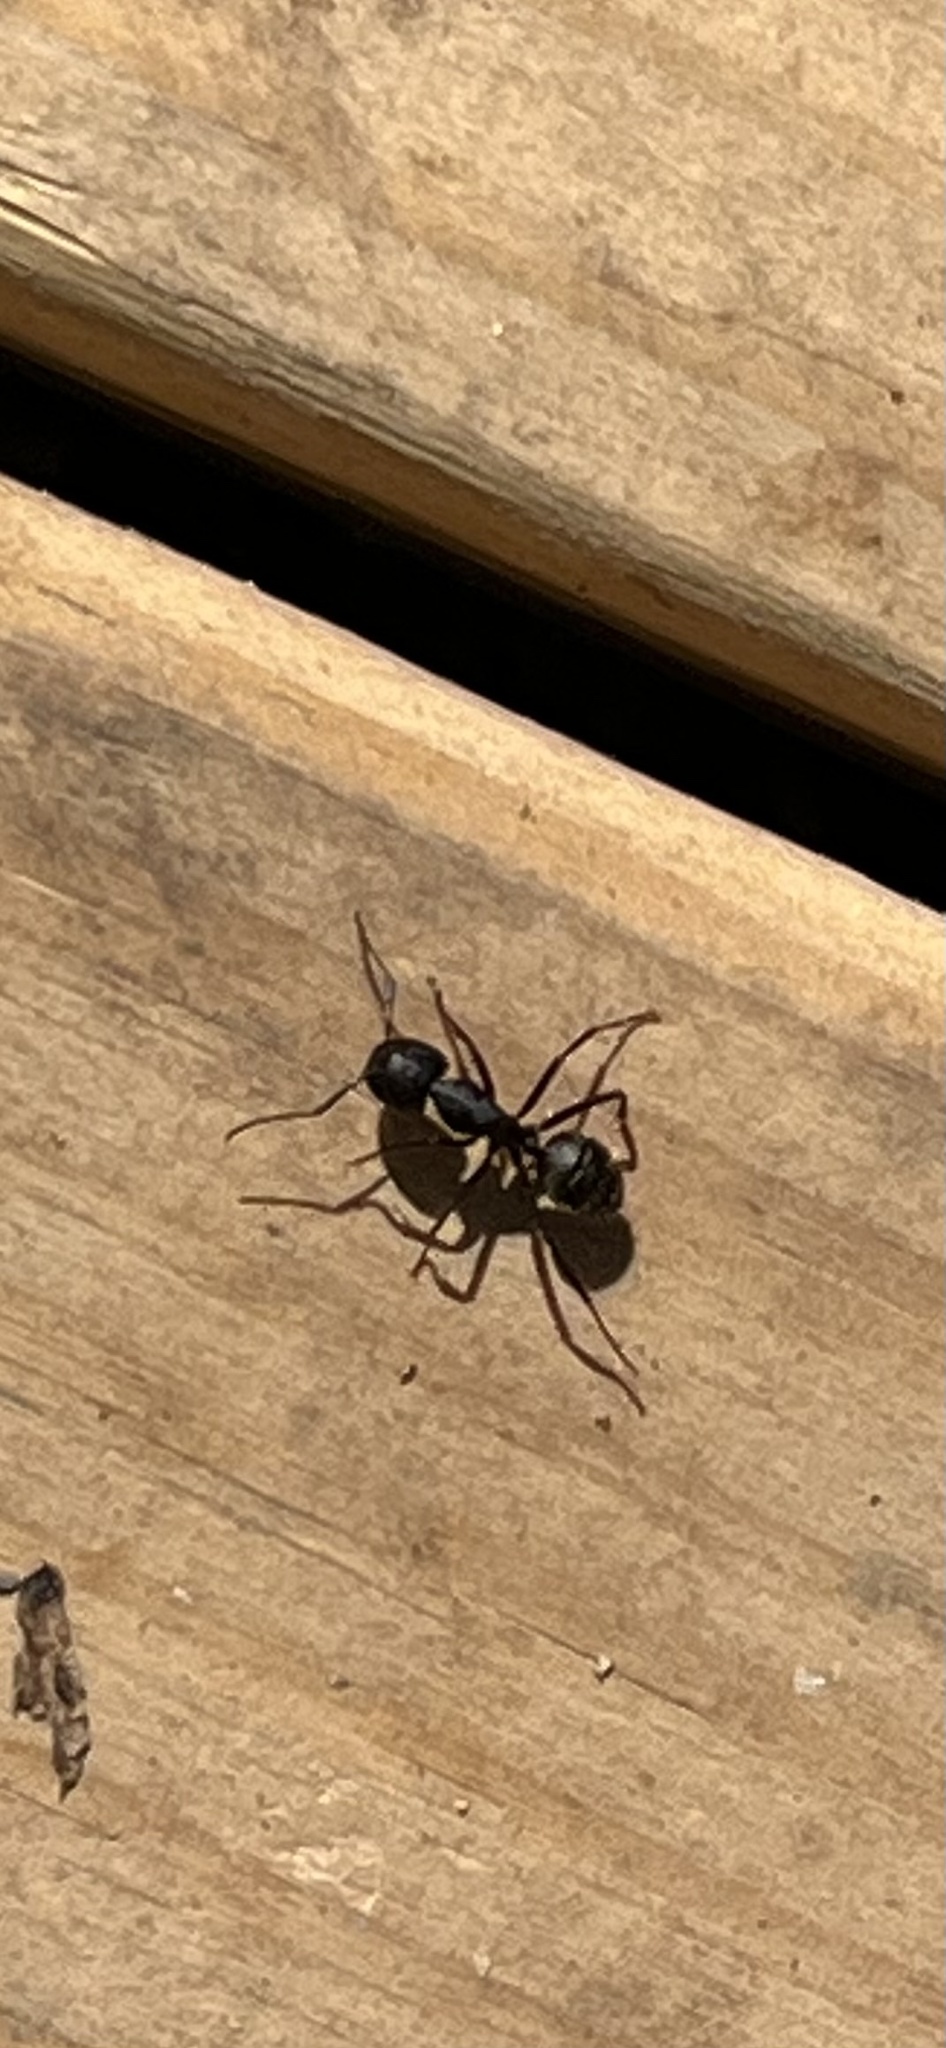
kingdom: Animalia
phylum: Arthropoda
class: Insecta
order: Hymenoptera
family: Formicidae
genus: Camponotus
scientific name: Camponotus pennsylvanicus
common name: Black carpenter ant
